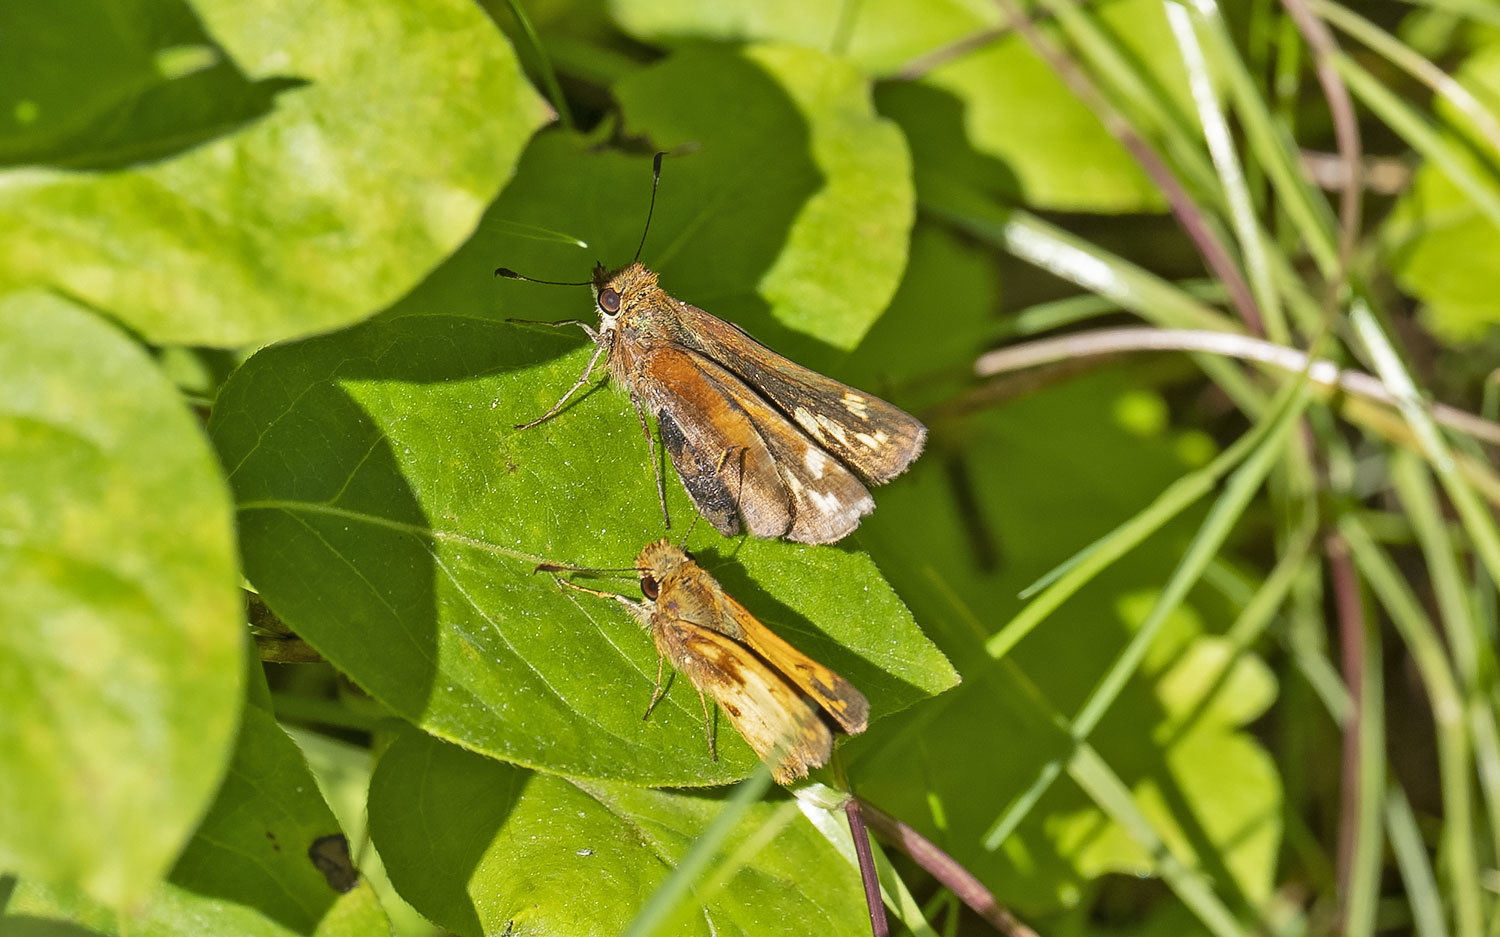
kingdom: Animalia
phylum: Arthropoda
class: Insecta
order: Lepidoptera
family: Hesperiidae
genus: Lon
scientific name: Lon zabulon
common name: Zabulon skipper
